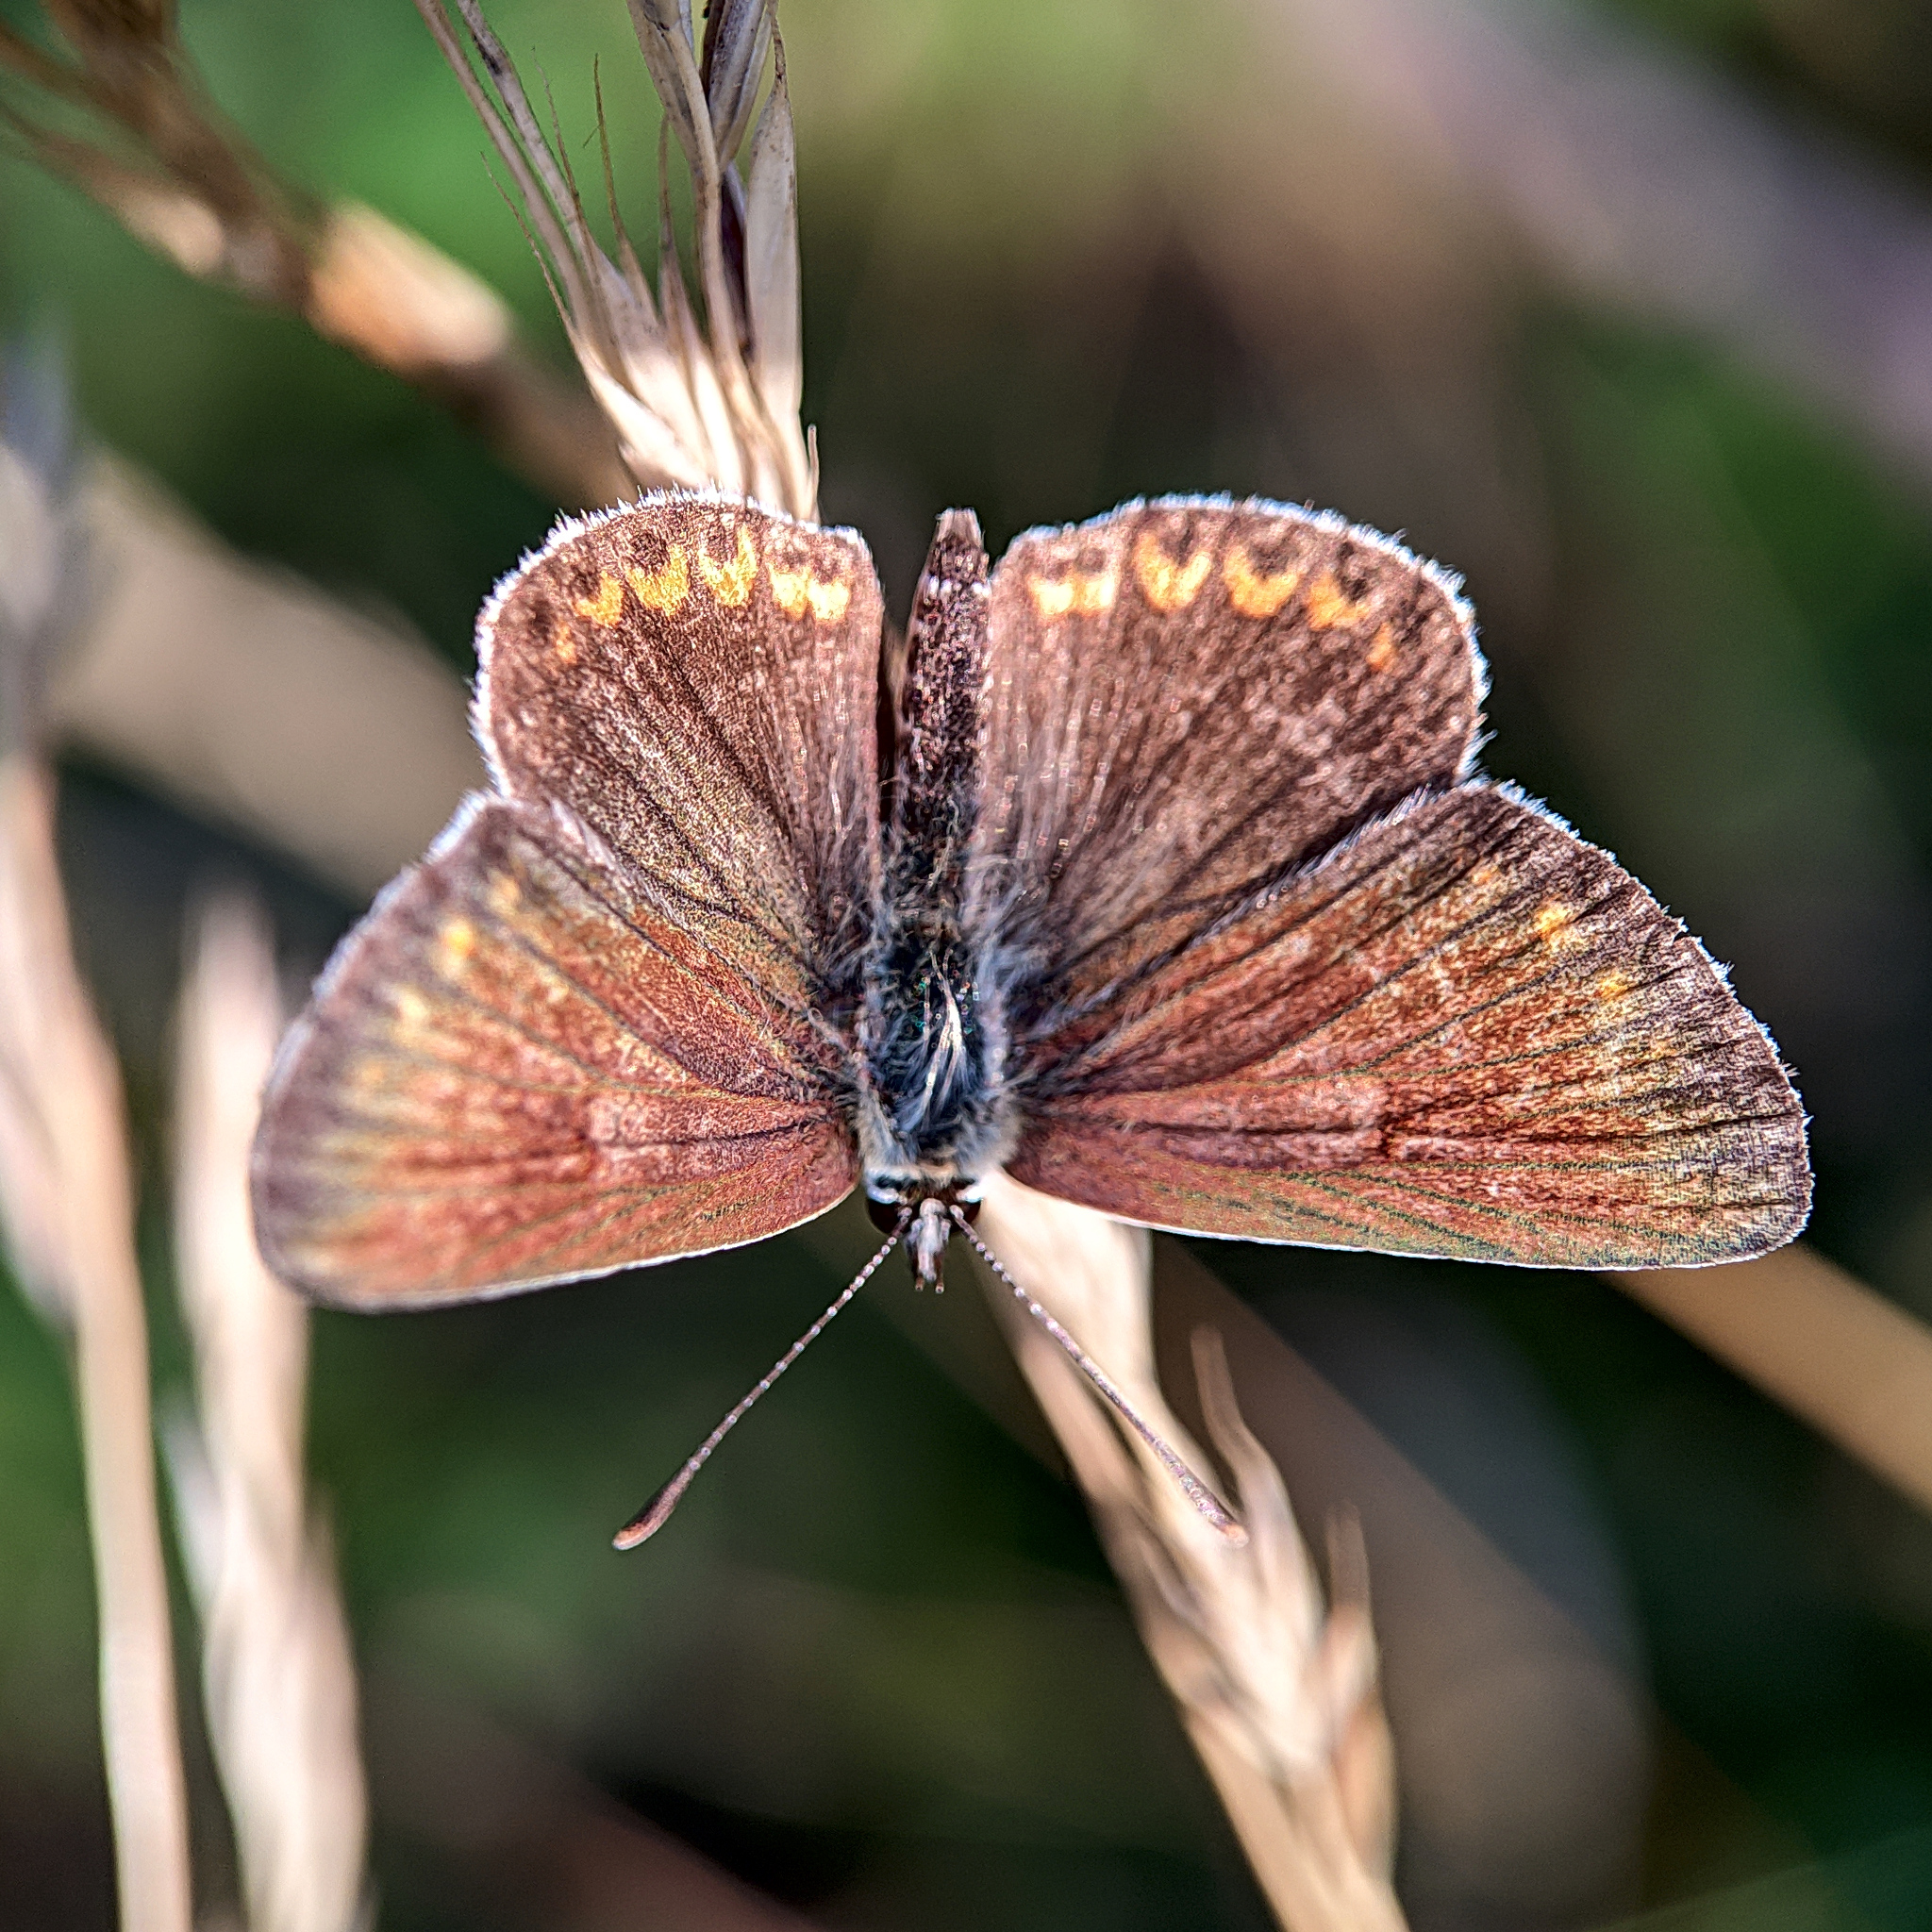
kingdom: Animalia
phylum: Arthropoda
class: Insecta
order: Lepidoptera
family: Lycaenidae
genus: Aricia
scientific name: Aricia agestis
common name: Brown argus
